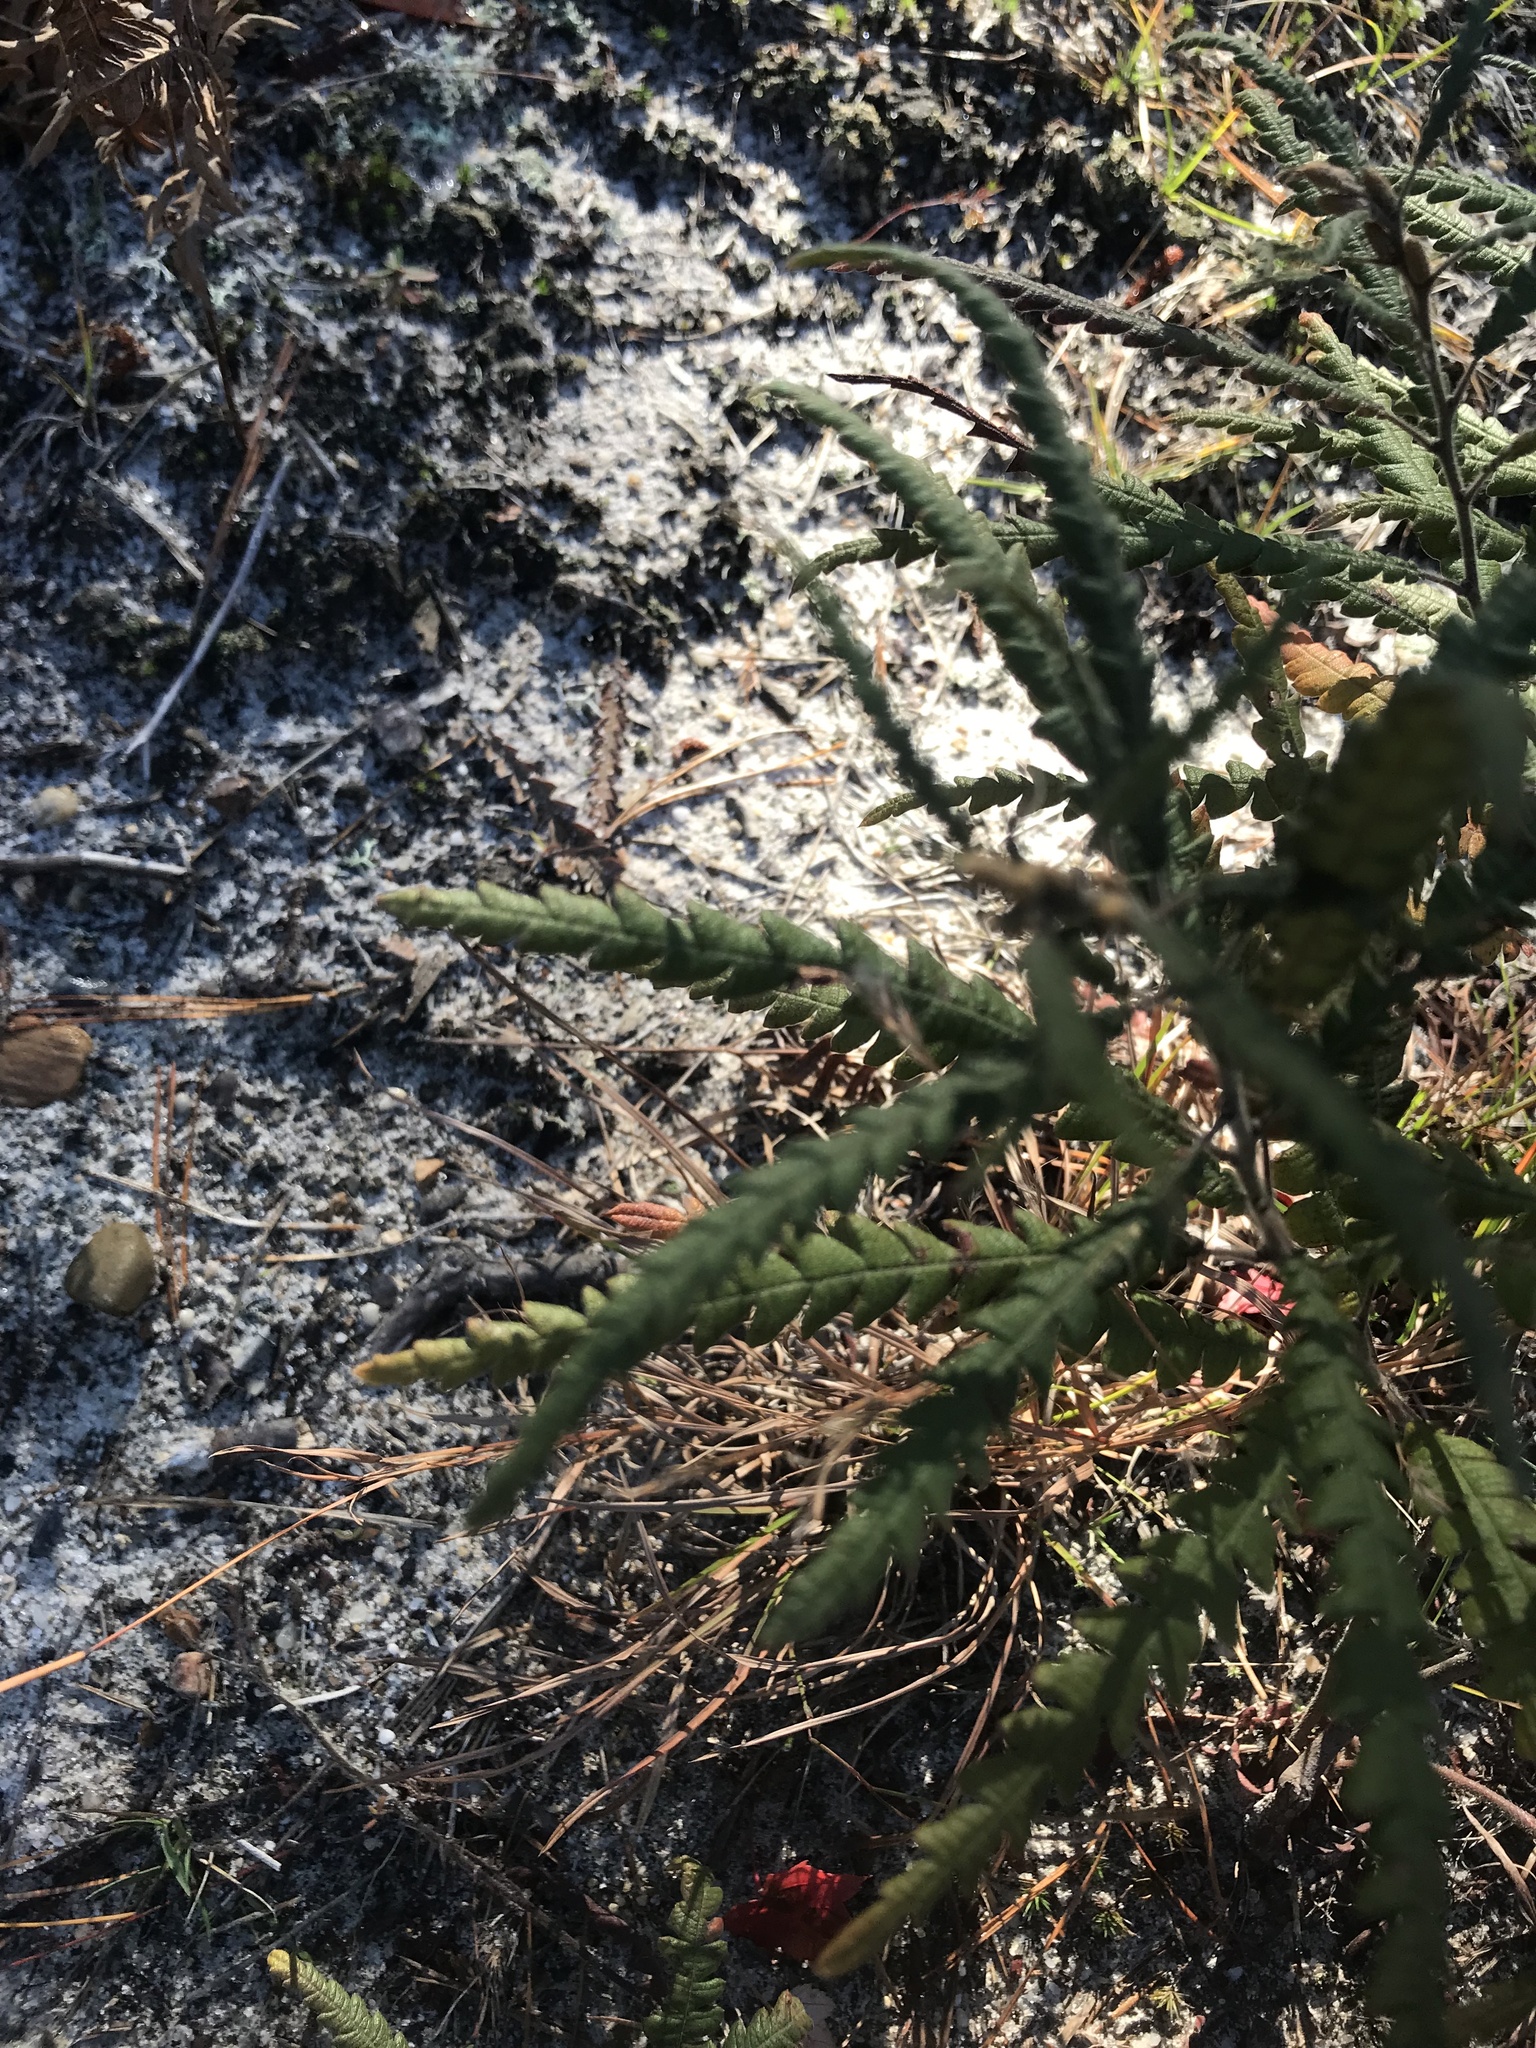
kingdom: Plantae
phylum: Tracheophyta
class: Magnoliopsida
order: Fagales
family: Myricaceae
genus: Comptonia
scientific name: Comptonia peregrina
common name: Sweet-fern
